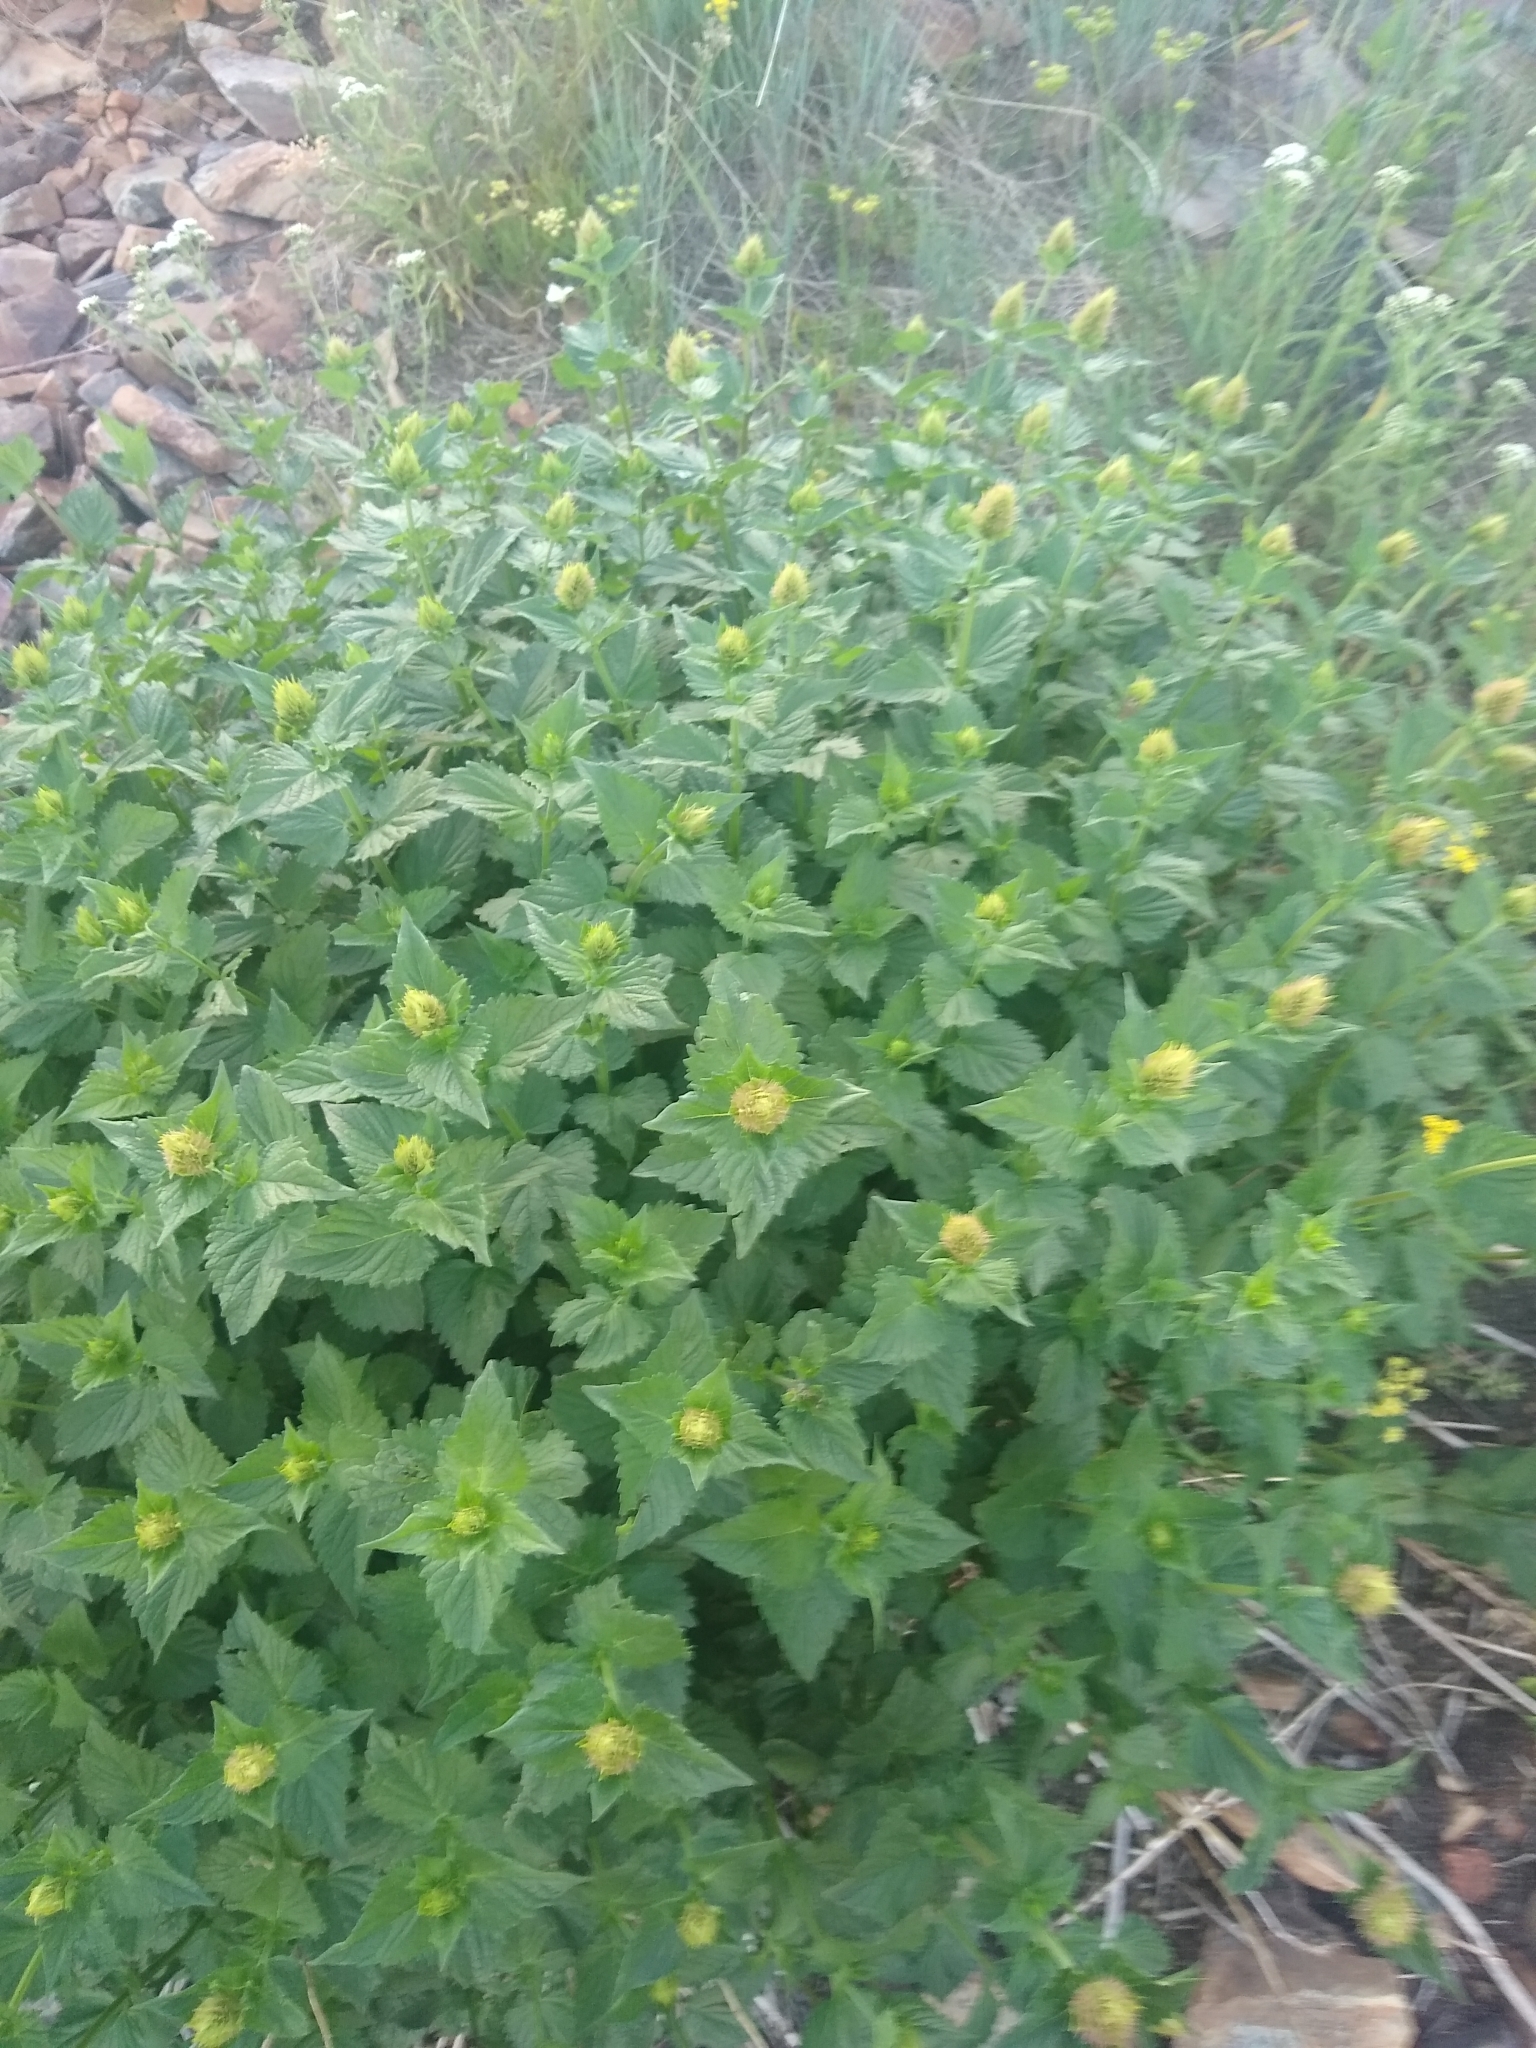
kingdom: Plantae
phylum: Tracheophyta
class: Magnoliopsida
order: Lamiales
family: Lamiaceae
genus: Agastache
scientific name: Agastache urticifolia
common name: Horsemint giant hyssop
